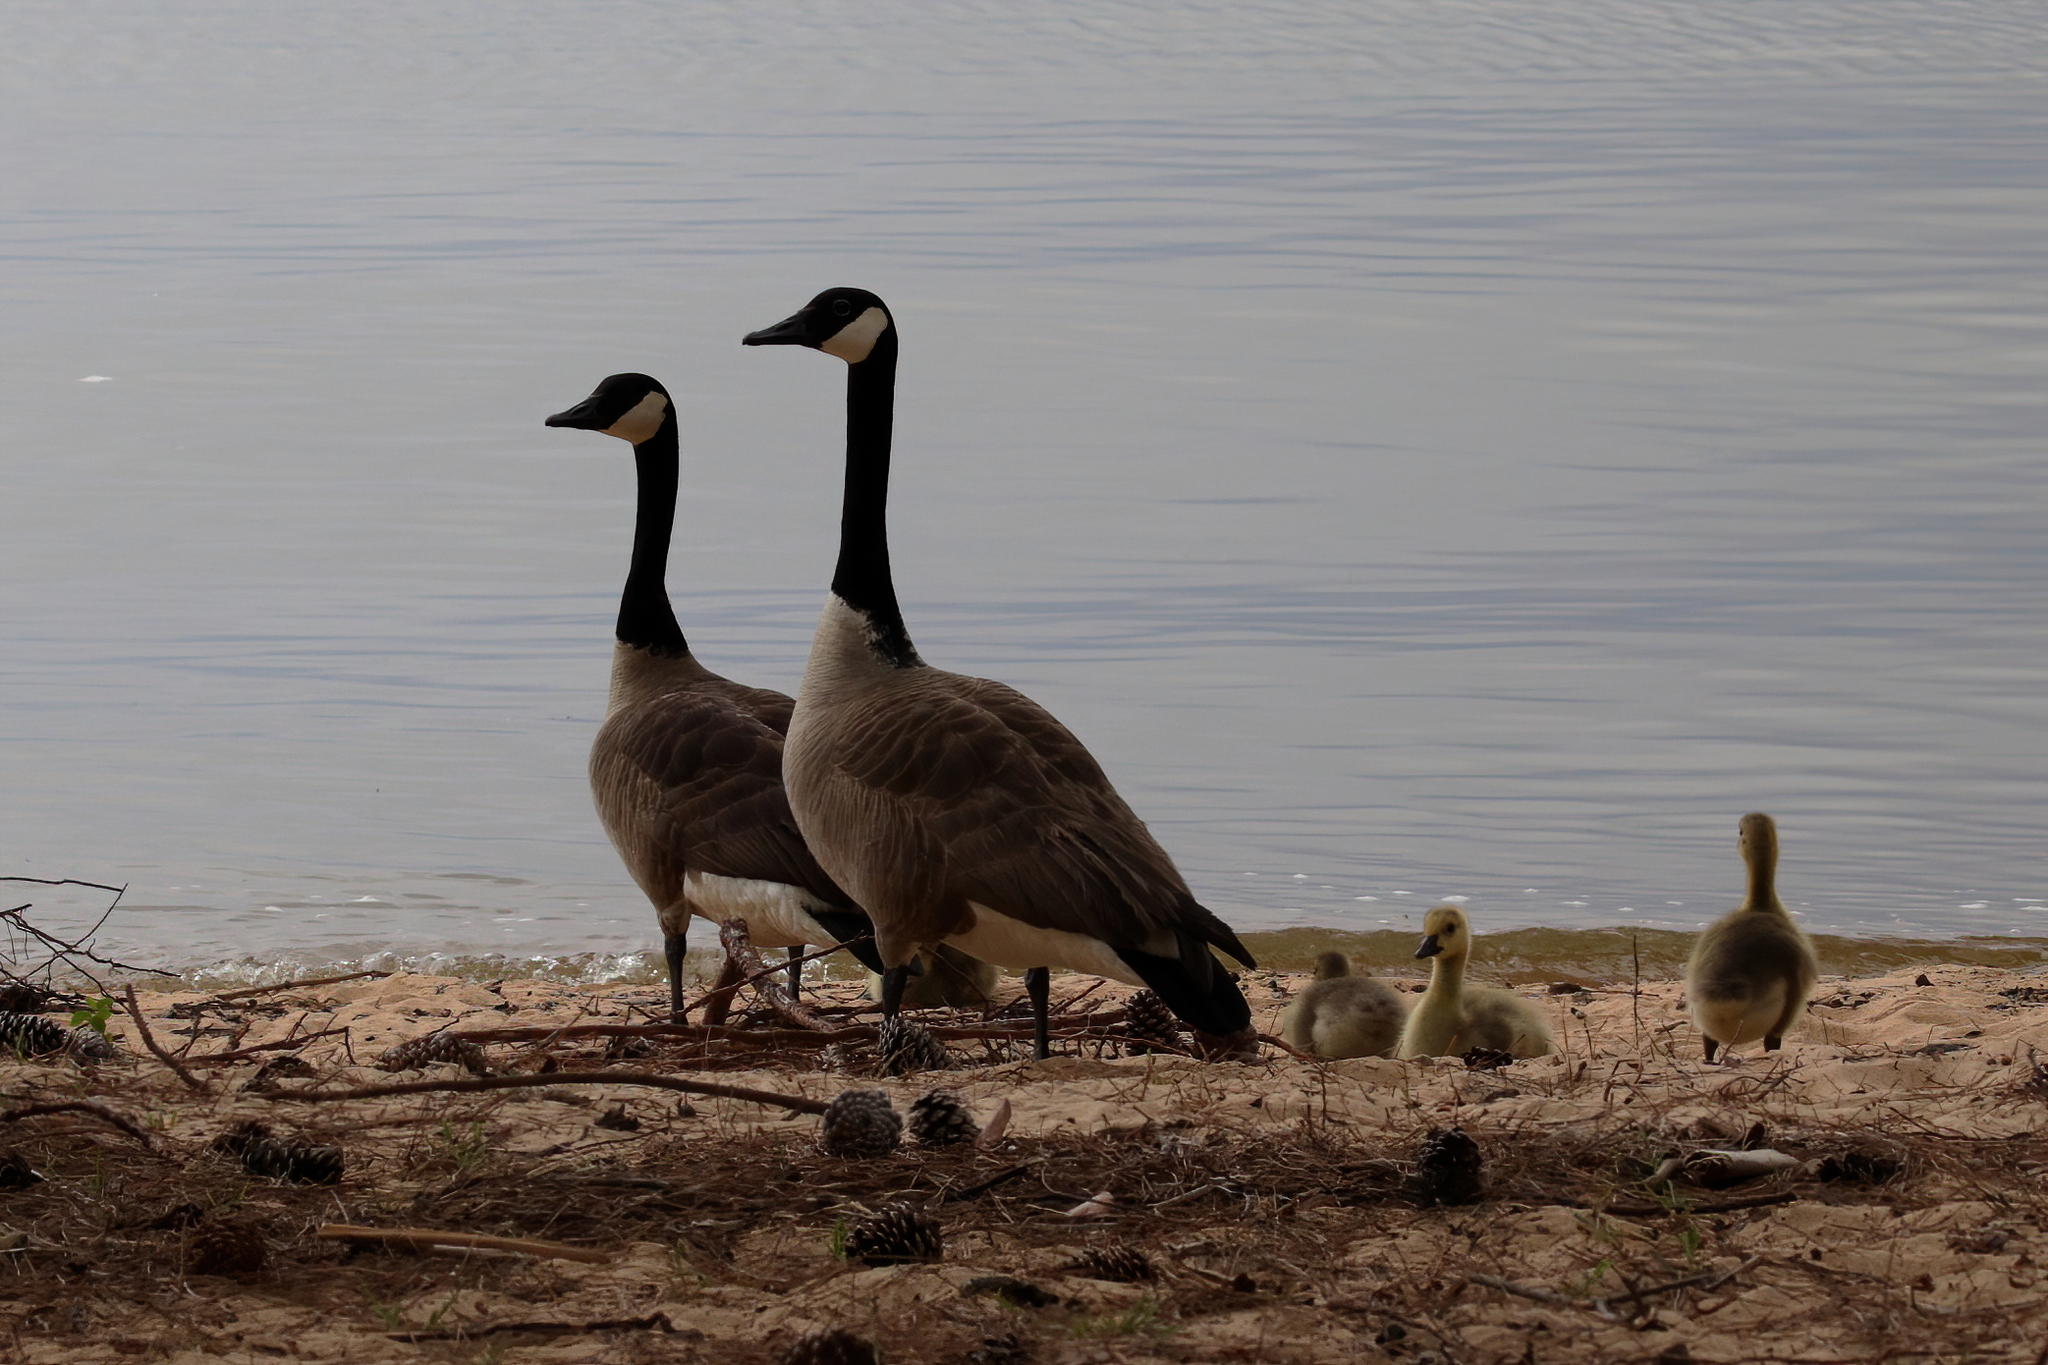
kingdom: Animalia
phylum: Chordata
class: Aves
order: Anseriformes
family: Anatidae
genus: Branta
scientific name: Branta canadensis
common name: Canada goose
